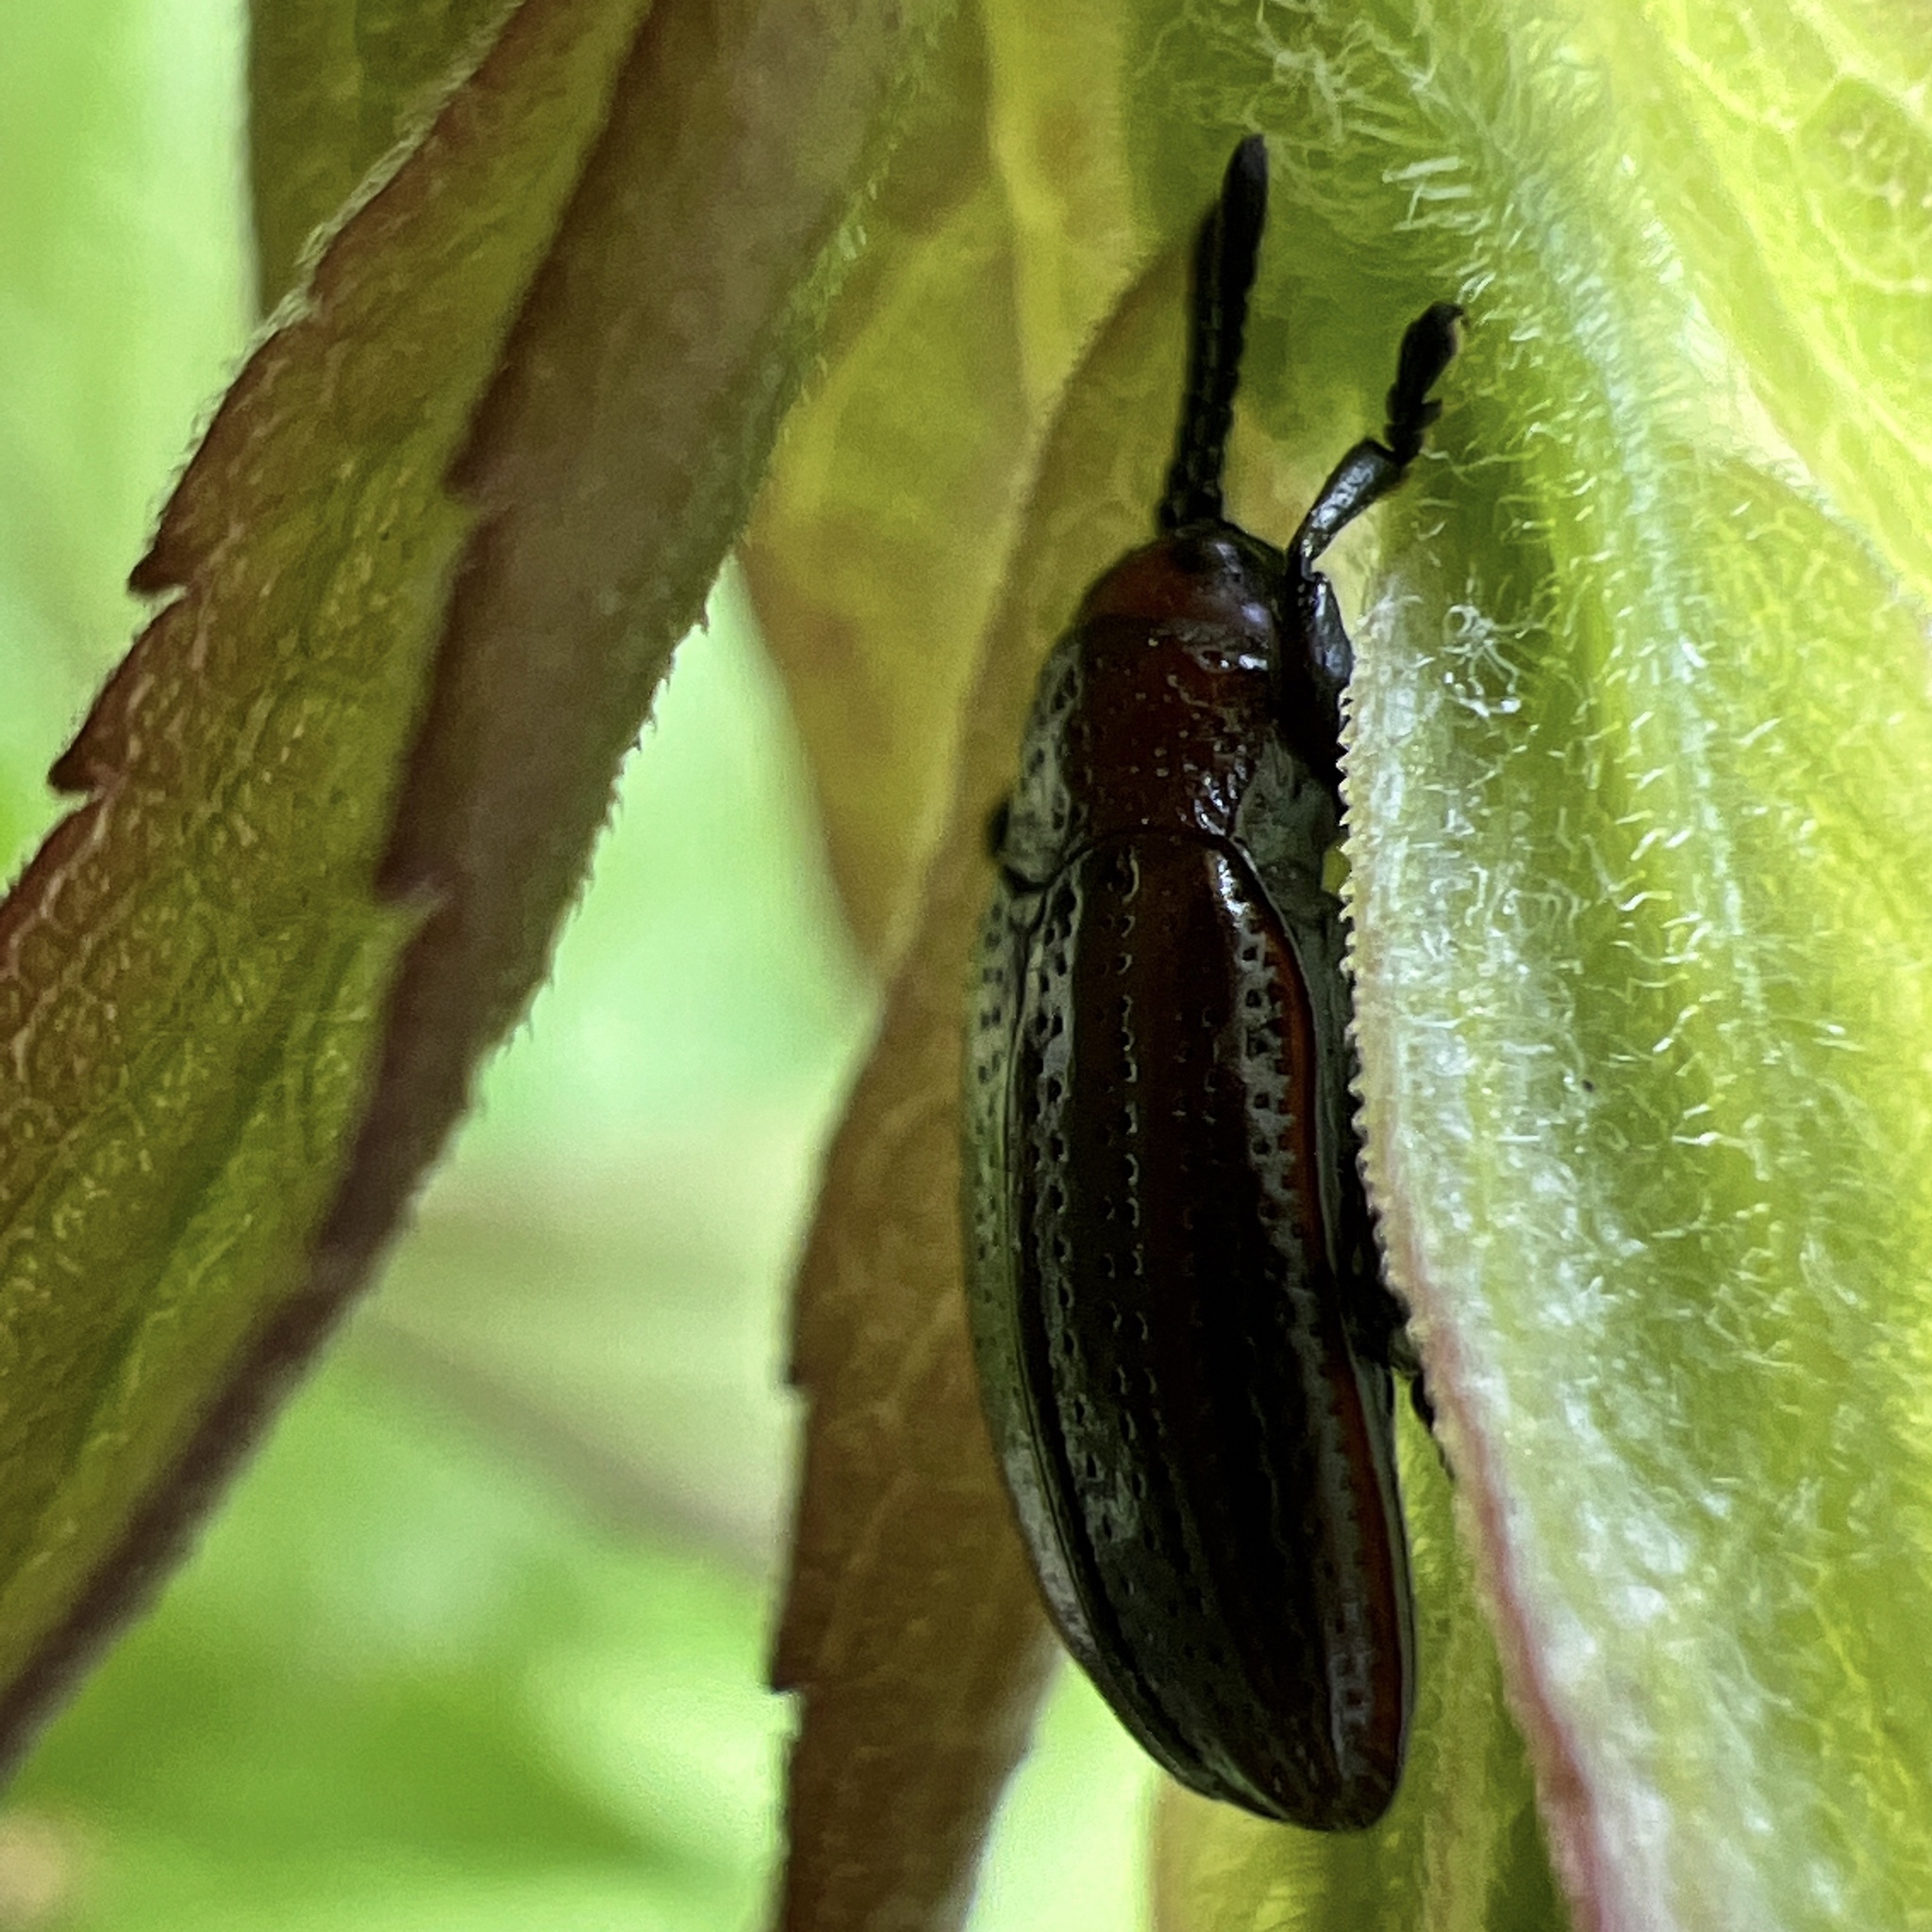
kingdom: Animalia
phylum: Arthropoda
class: Insecta
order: Coleoptera
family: Chrysomelidae
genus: Microrhopala
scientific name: Microrhopala vittata
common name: Goldenrod leaf miner beetle
